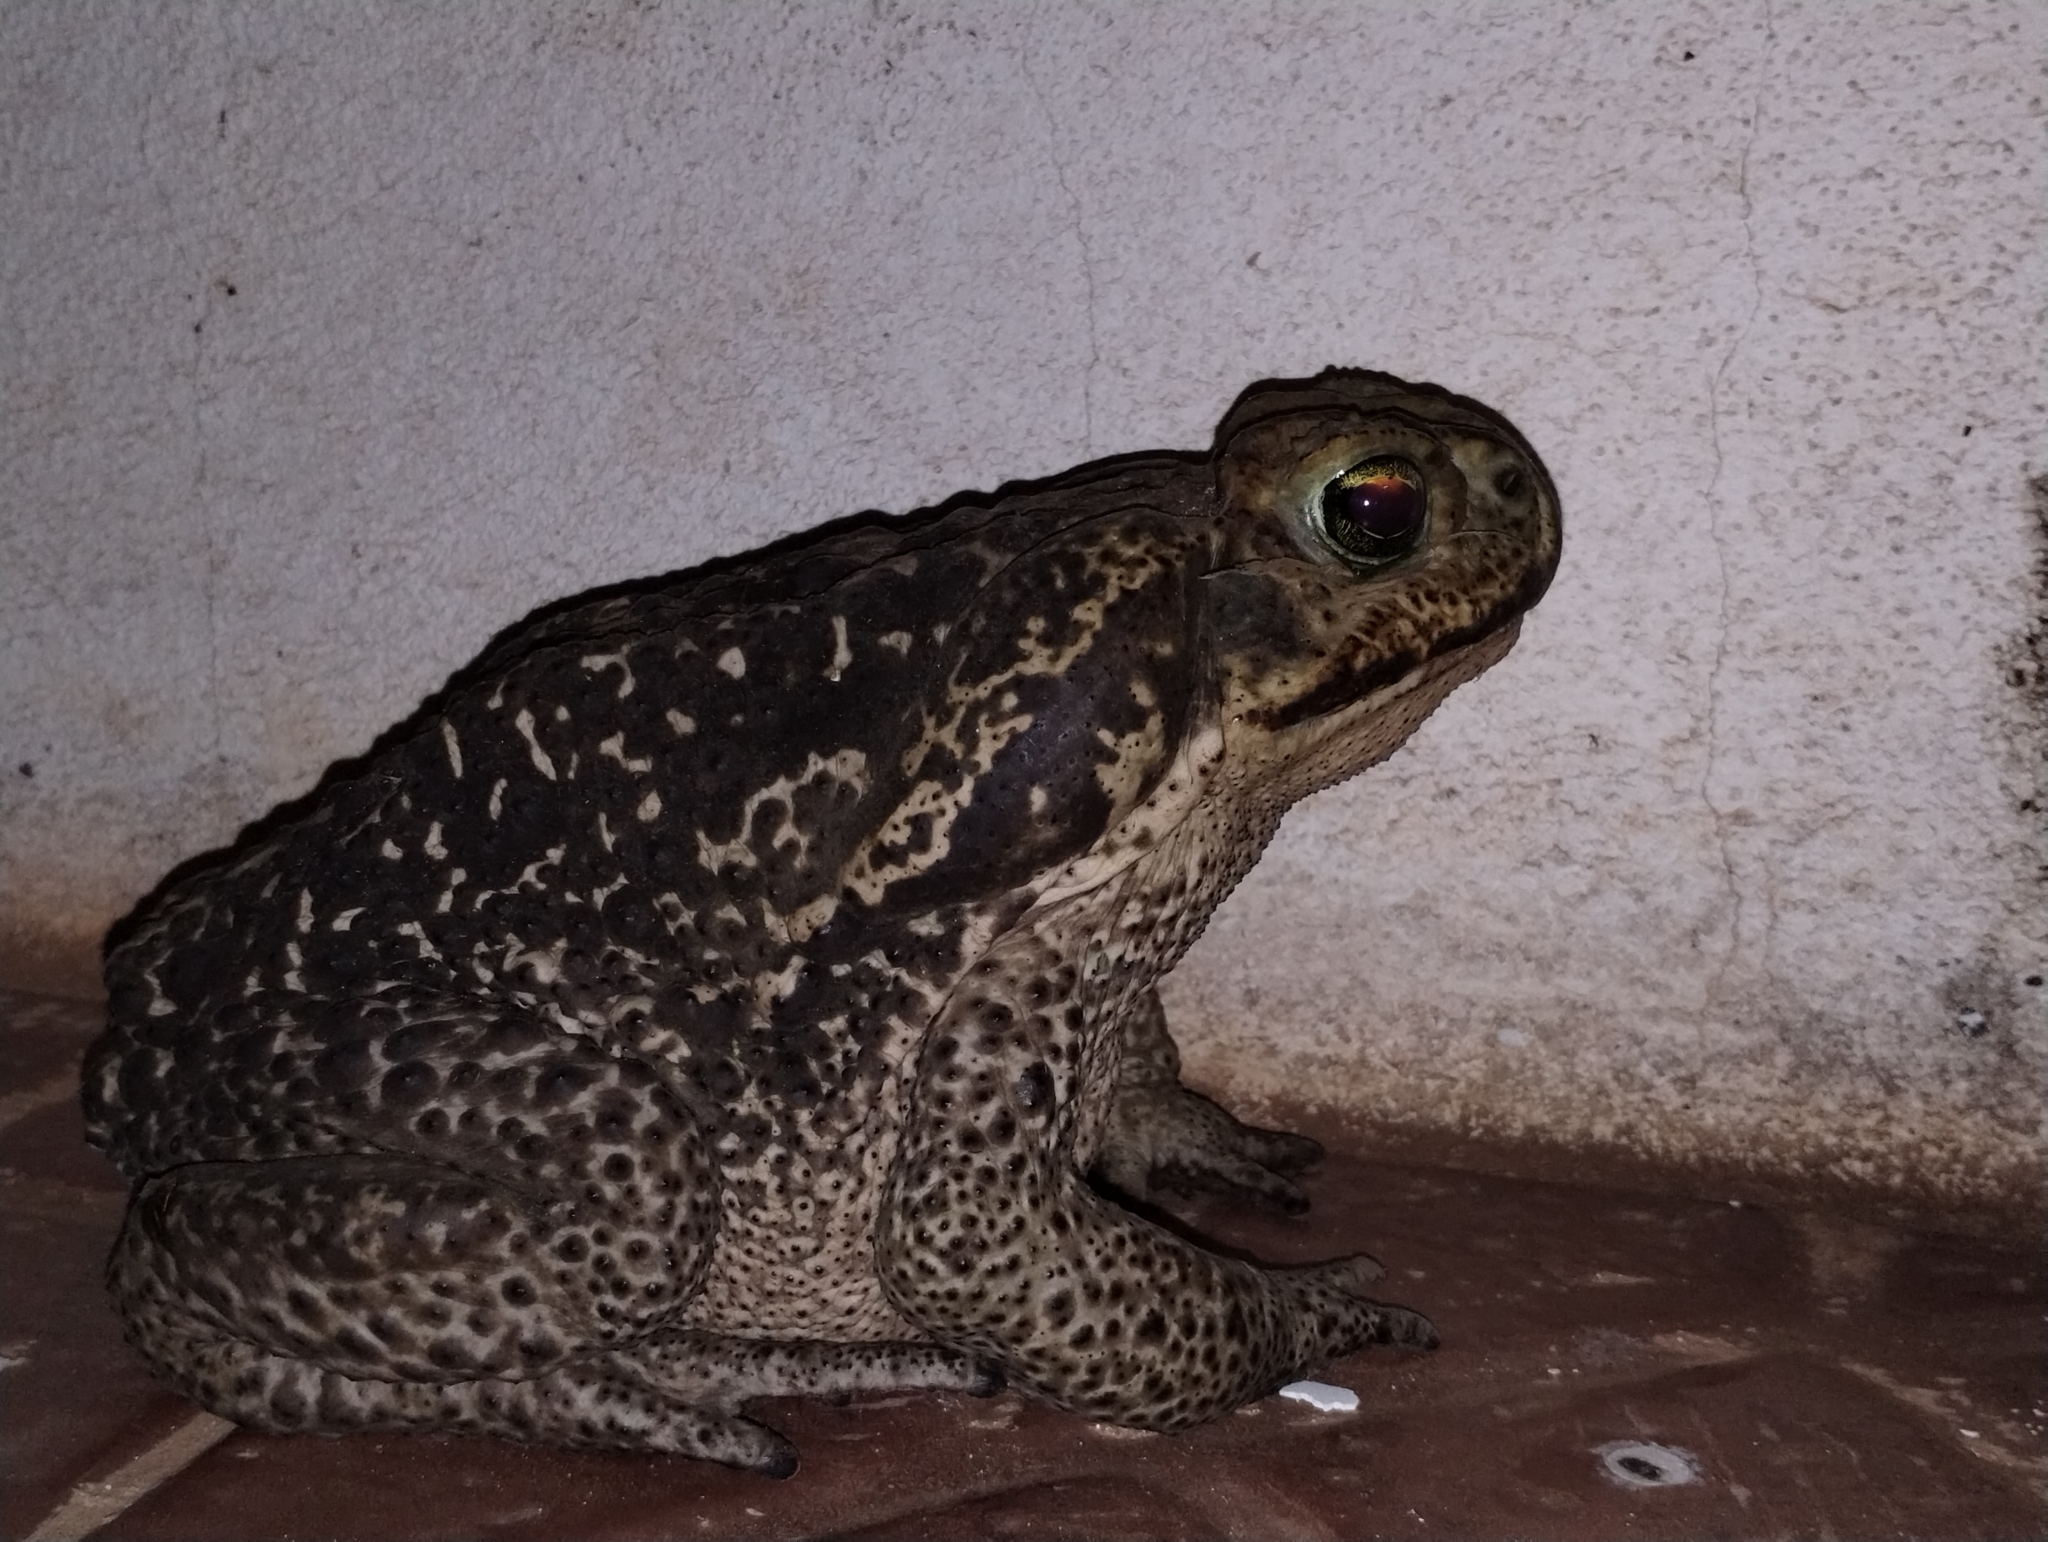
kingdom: Animalia
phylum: Chordata
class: Amphibia
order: Anura
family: Bufonidae
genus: Rhinella
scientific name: Rhinella diptycha
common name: Cope's toad
